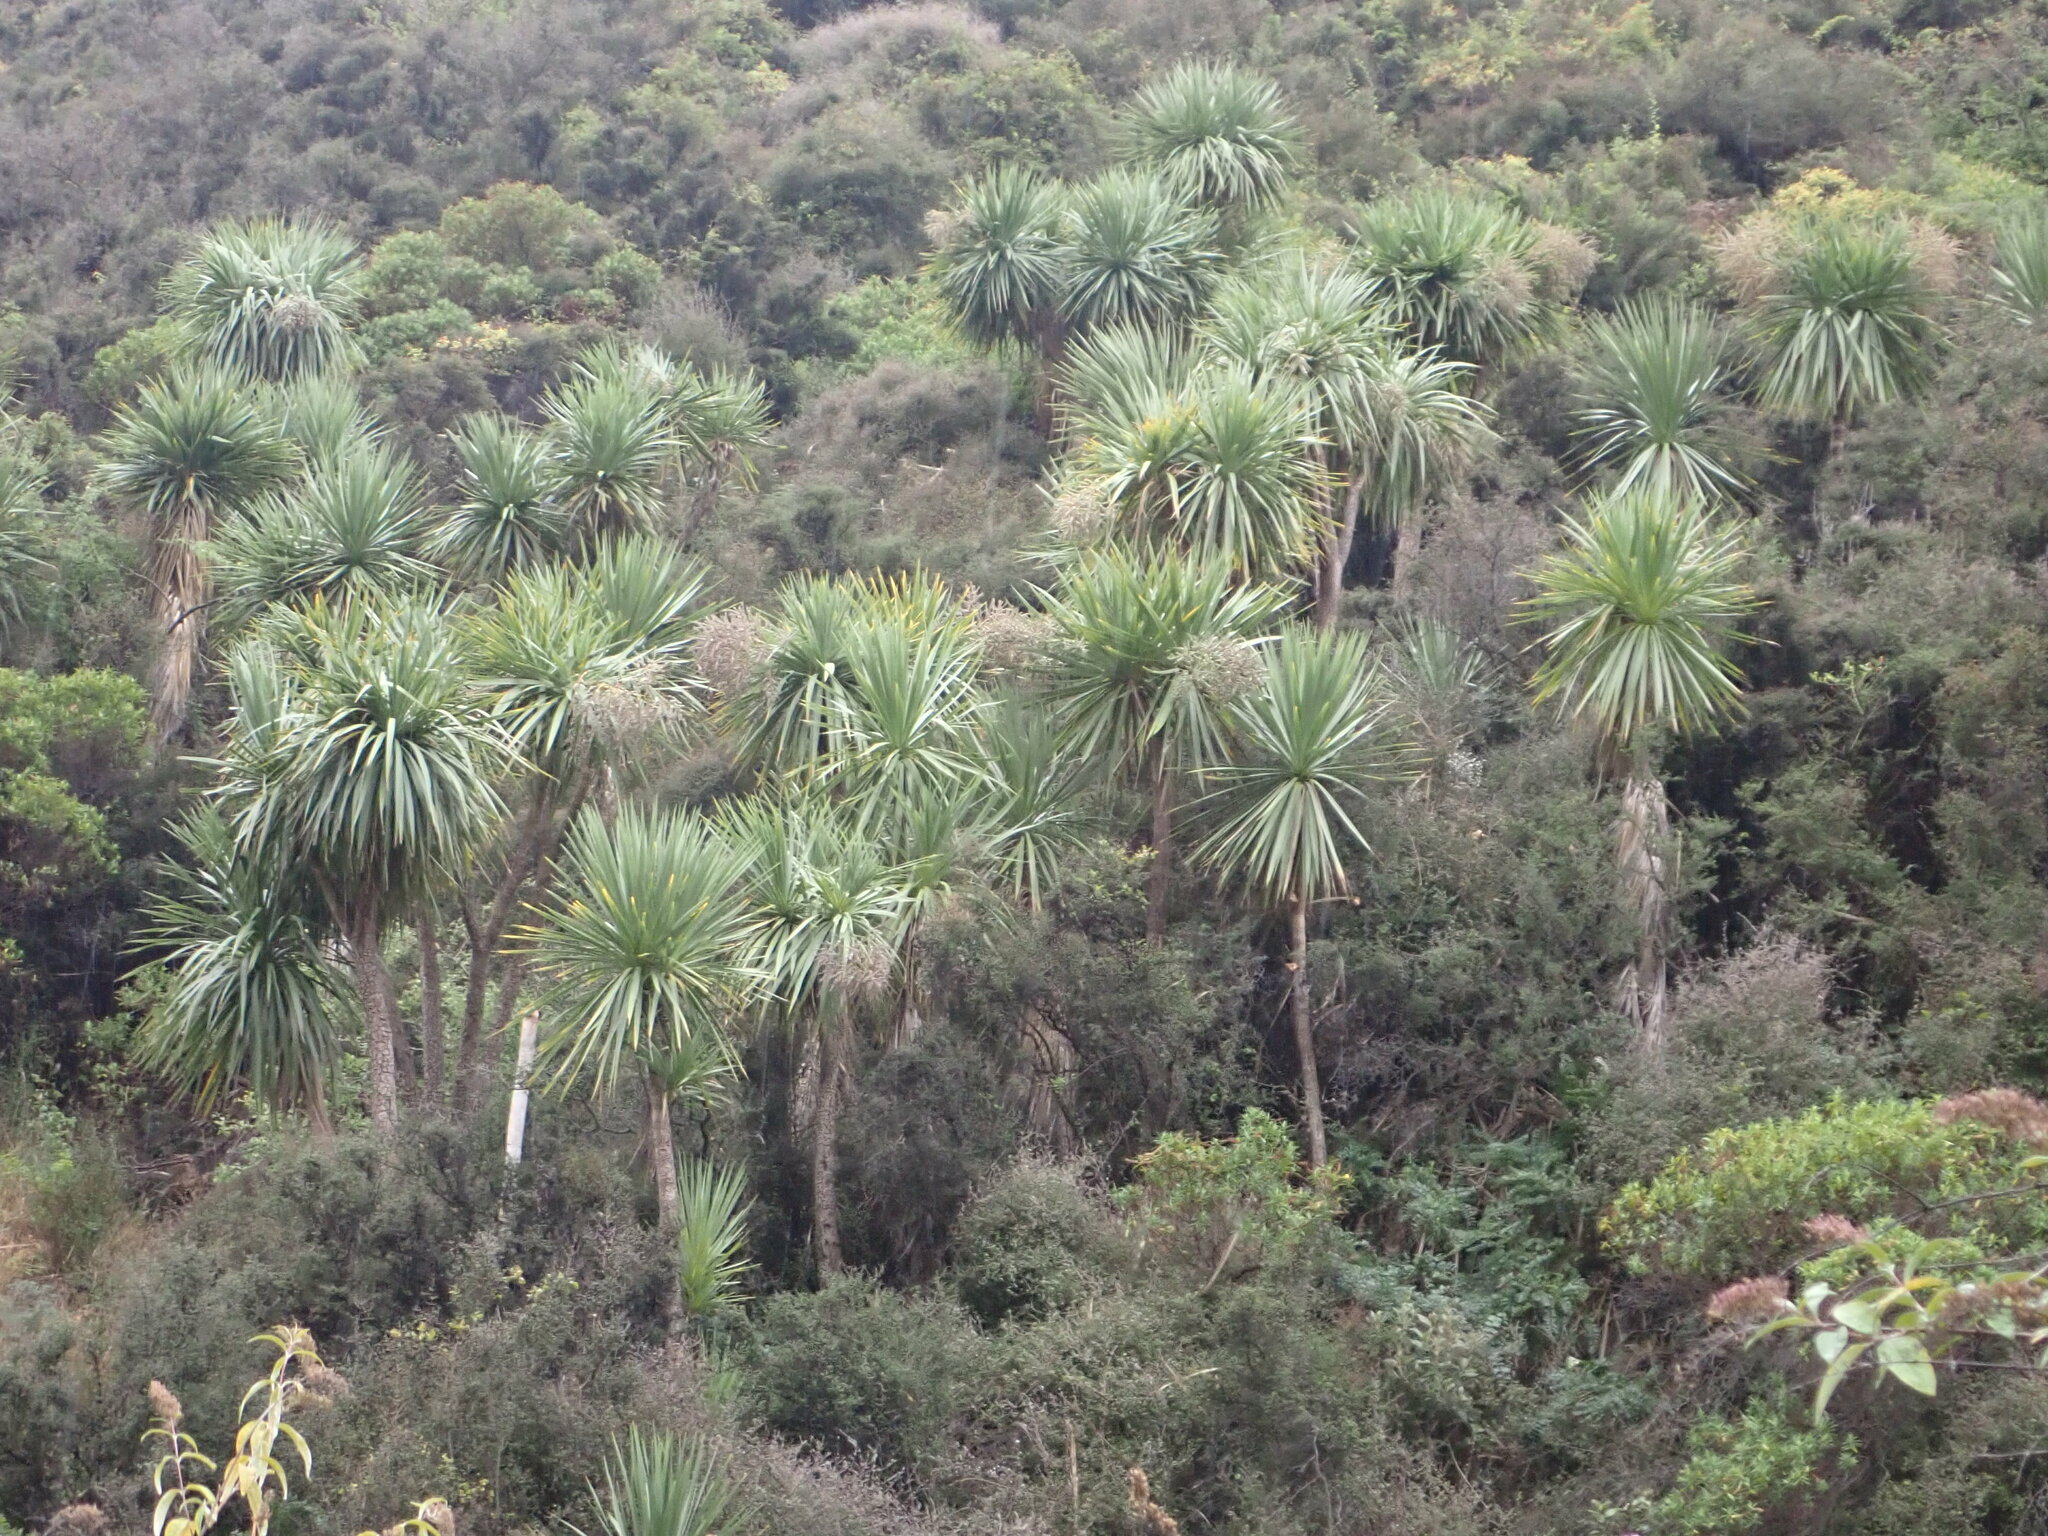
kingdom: Plantae
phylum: Tracheophyta
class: Liliopsida
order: Asparagales
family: Asparagaceae
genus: Cordyline
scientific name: Cordyline australis
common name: Cabbage-palm
